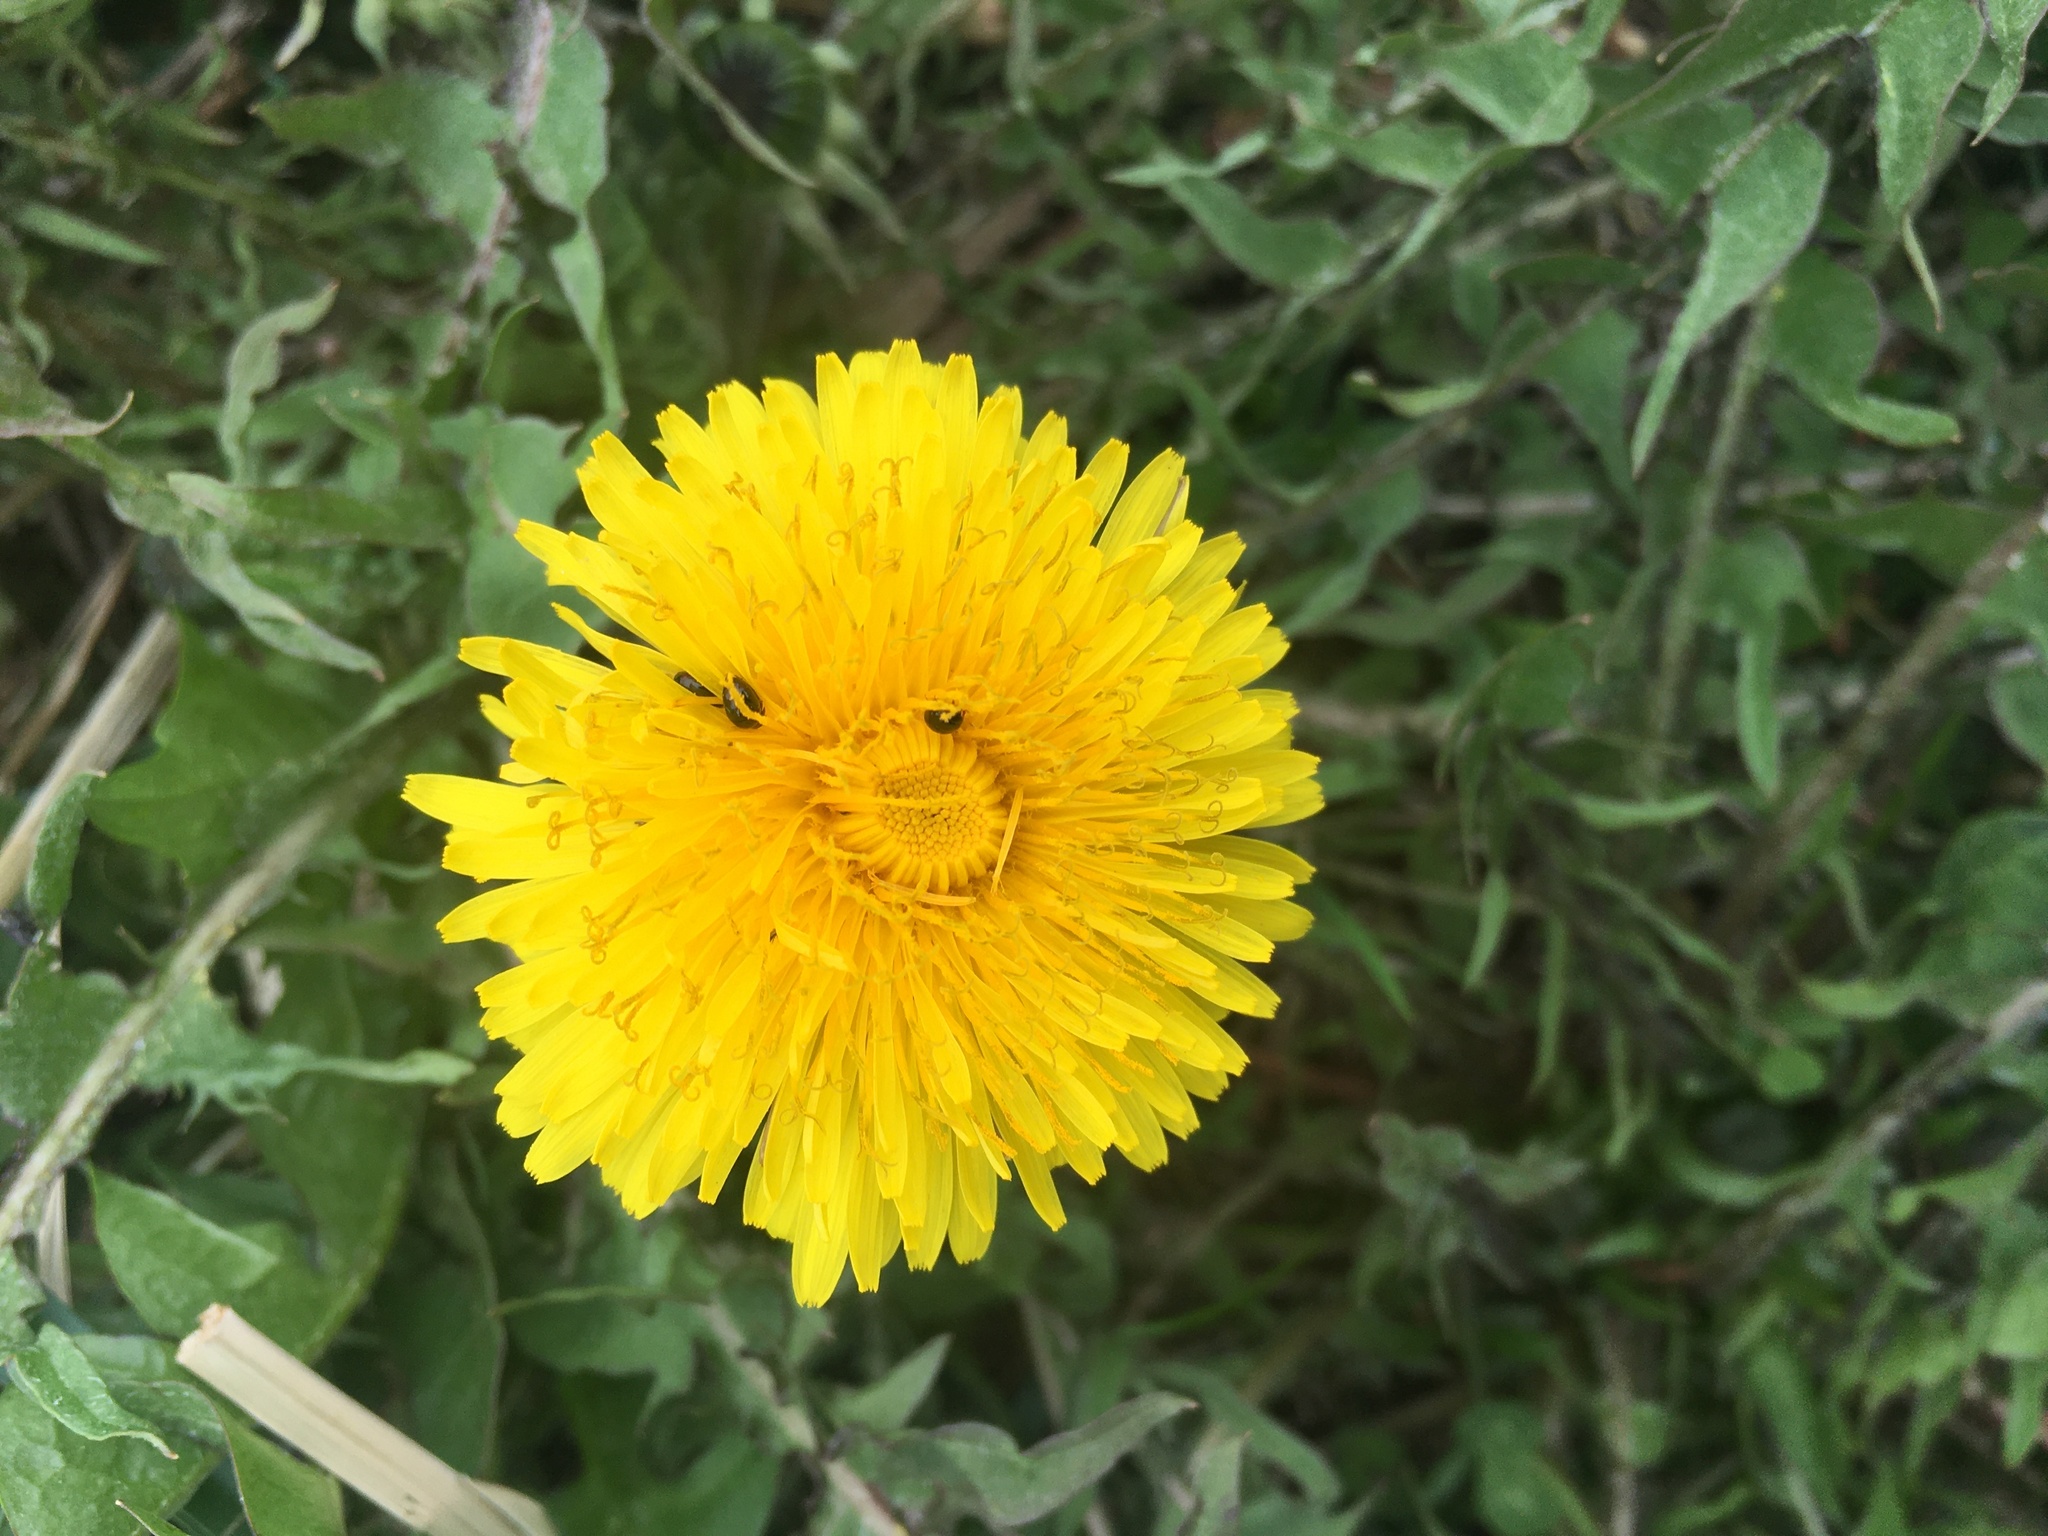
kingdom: Plantae
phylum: Tracheophyta
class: Magnoliopsida
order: Asterales
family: Asteraceae
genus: Taraxacum
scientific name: Taraxacum officinale
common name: Common dandelion
